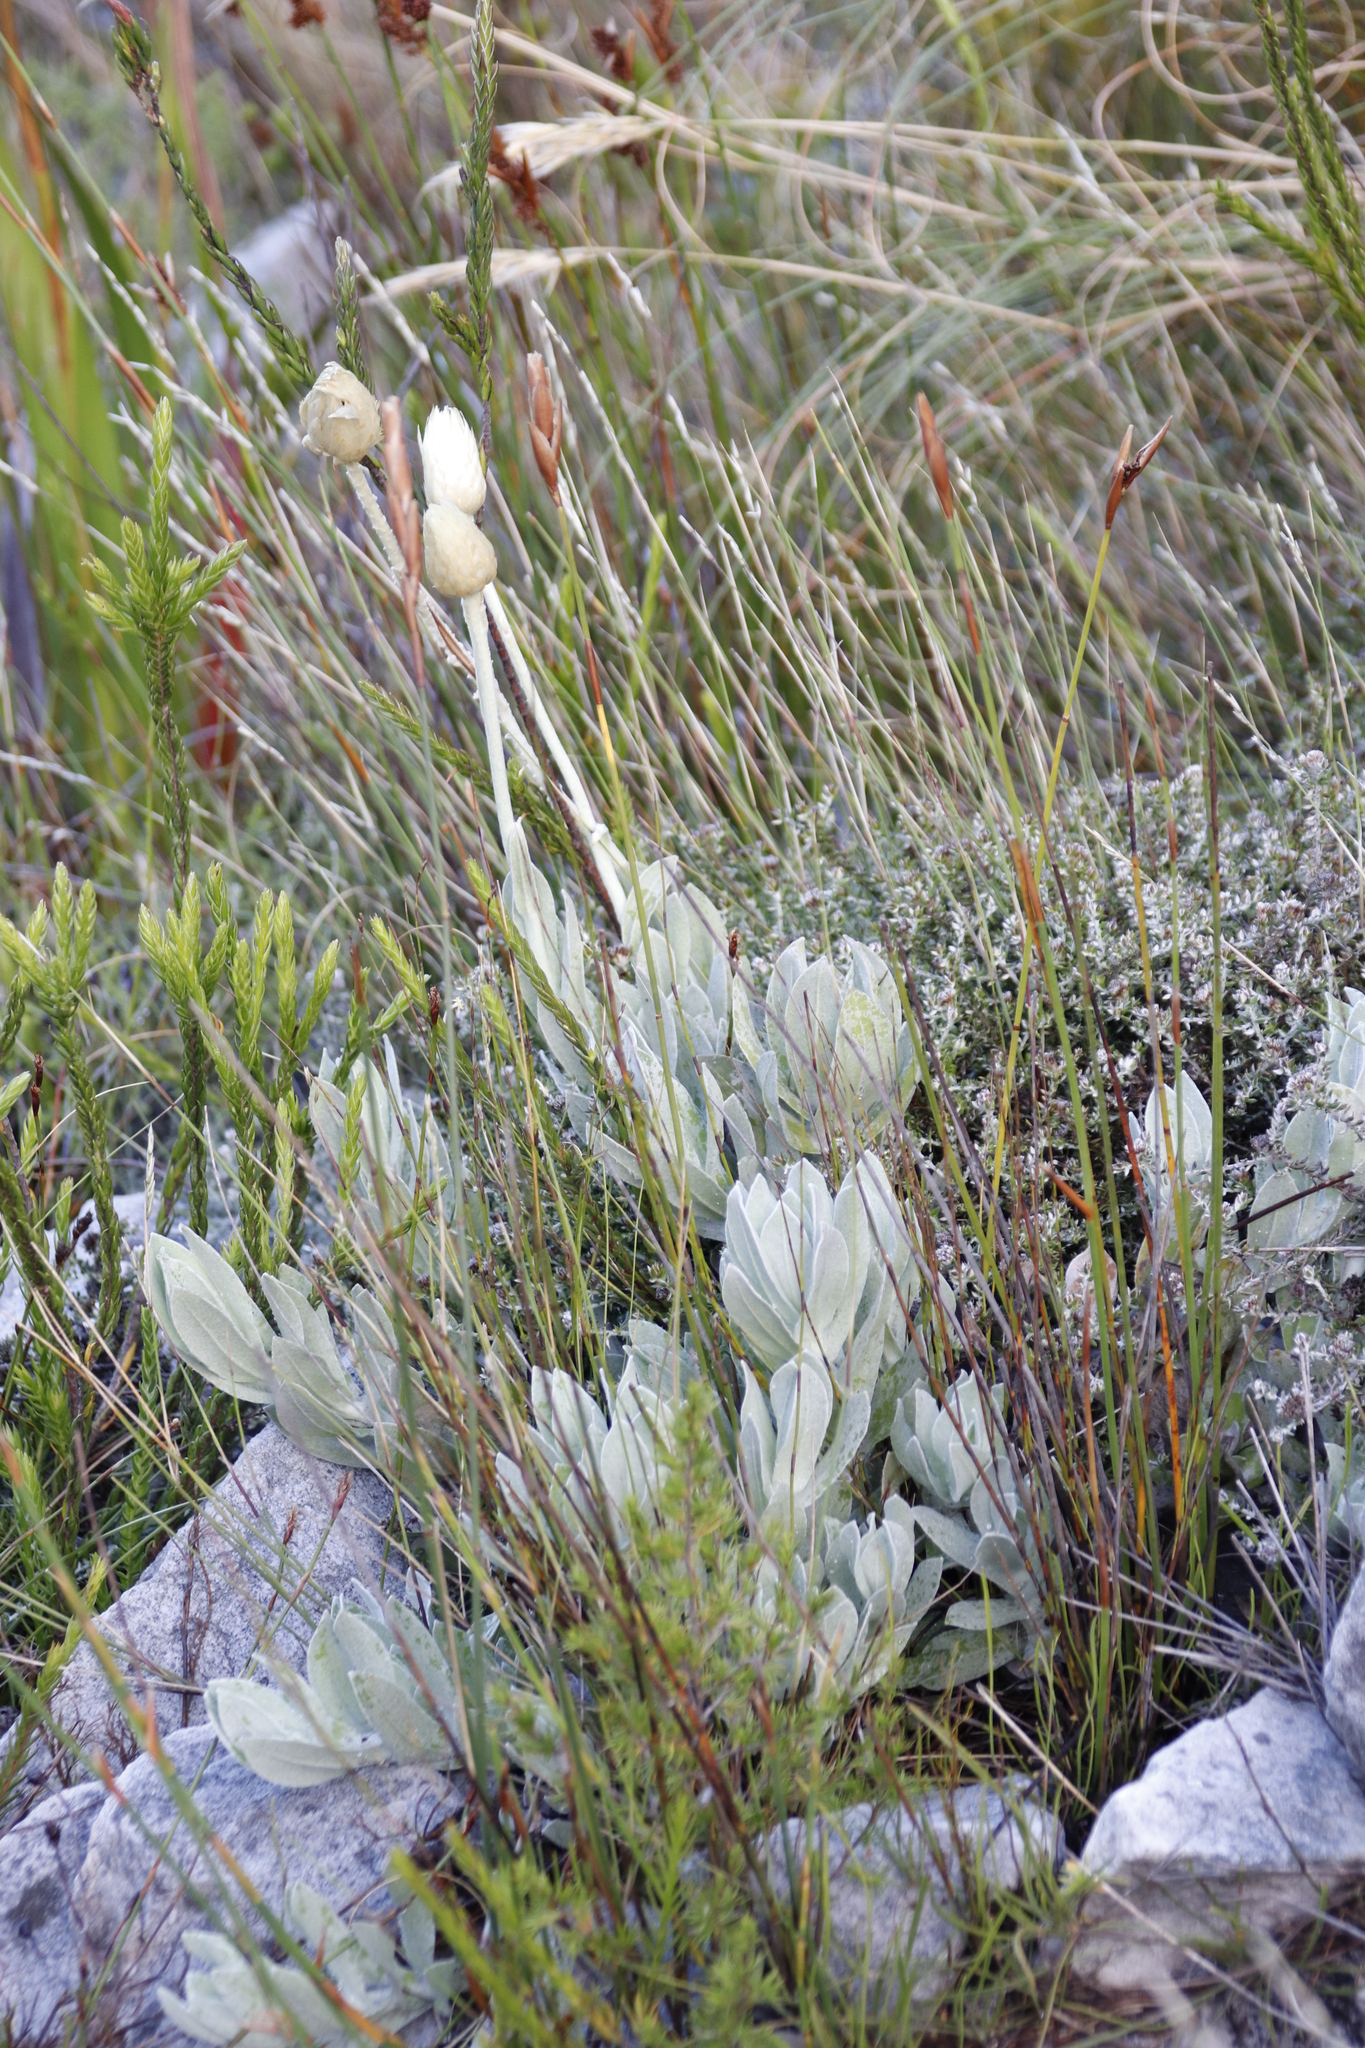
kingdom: Plantae
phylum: Tracheophyta
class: Magnoliopsida
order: Asterales
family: Asteraceae
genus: Syncarpha
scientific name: Syncarpha speciosissima
